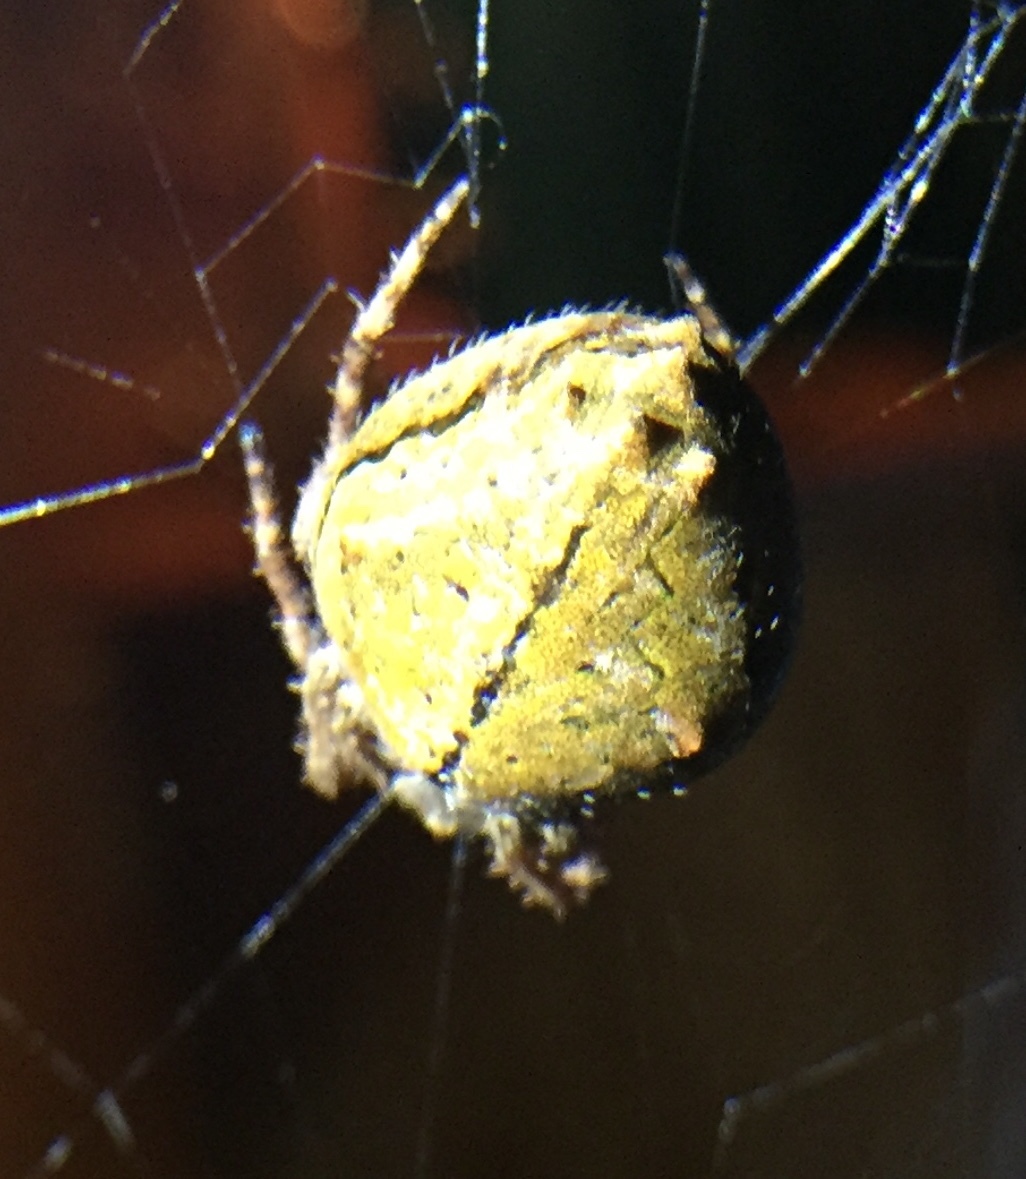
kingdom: Animalia
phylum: Arthropoda
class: Arachnida
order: Araneae
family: Araneidae
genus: Eriophora
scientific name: Eriophora pustulosa
